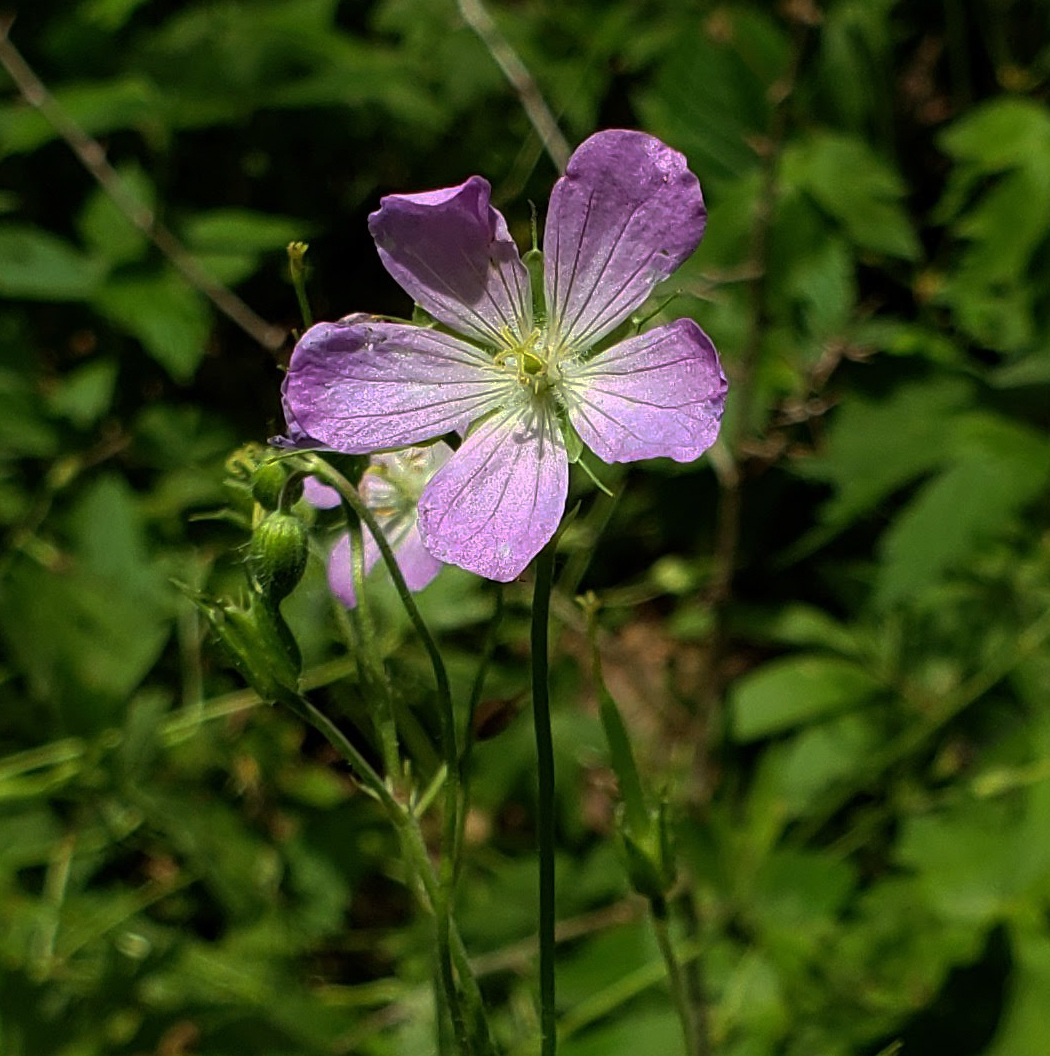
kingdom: Plantae
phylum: Tracheophyta
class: Magnoliopsida
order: Geraniales
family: Geraniaceae
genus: Geranium
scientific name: Geranium maculatum
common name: Spotted geranium
